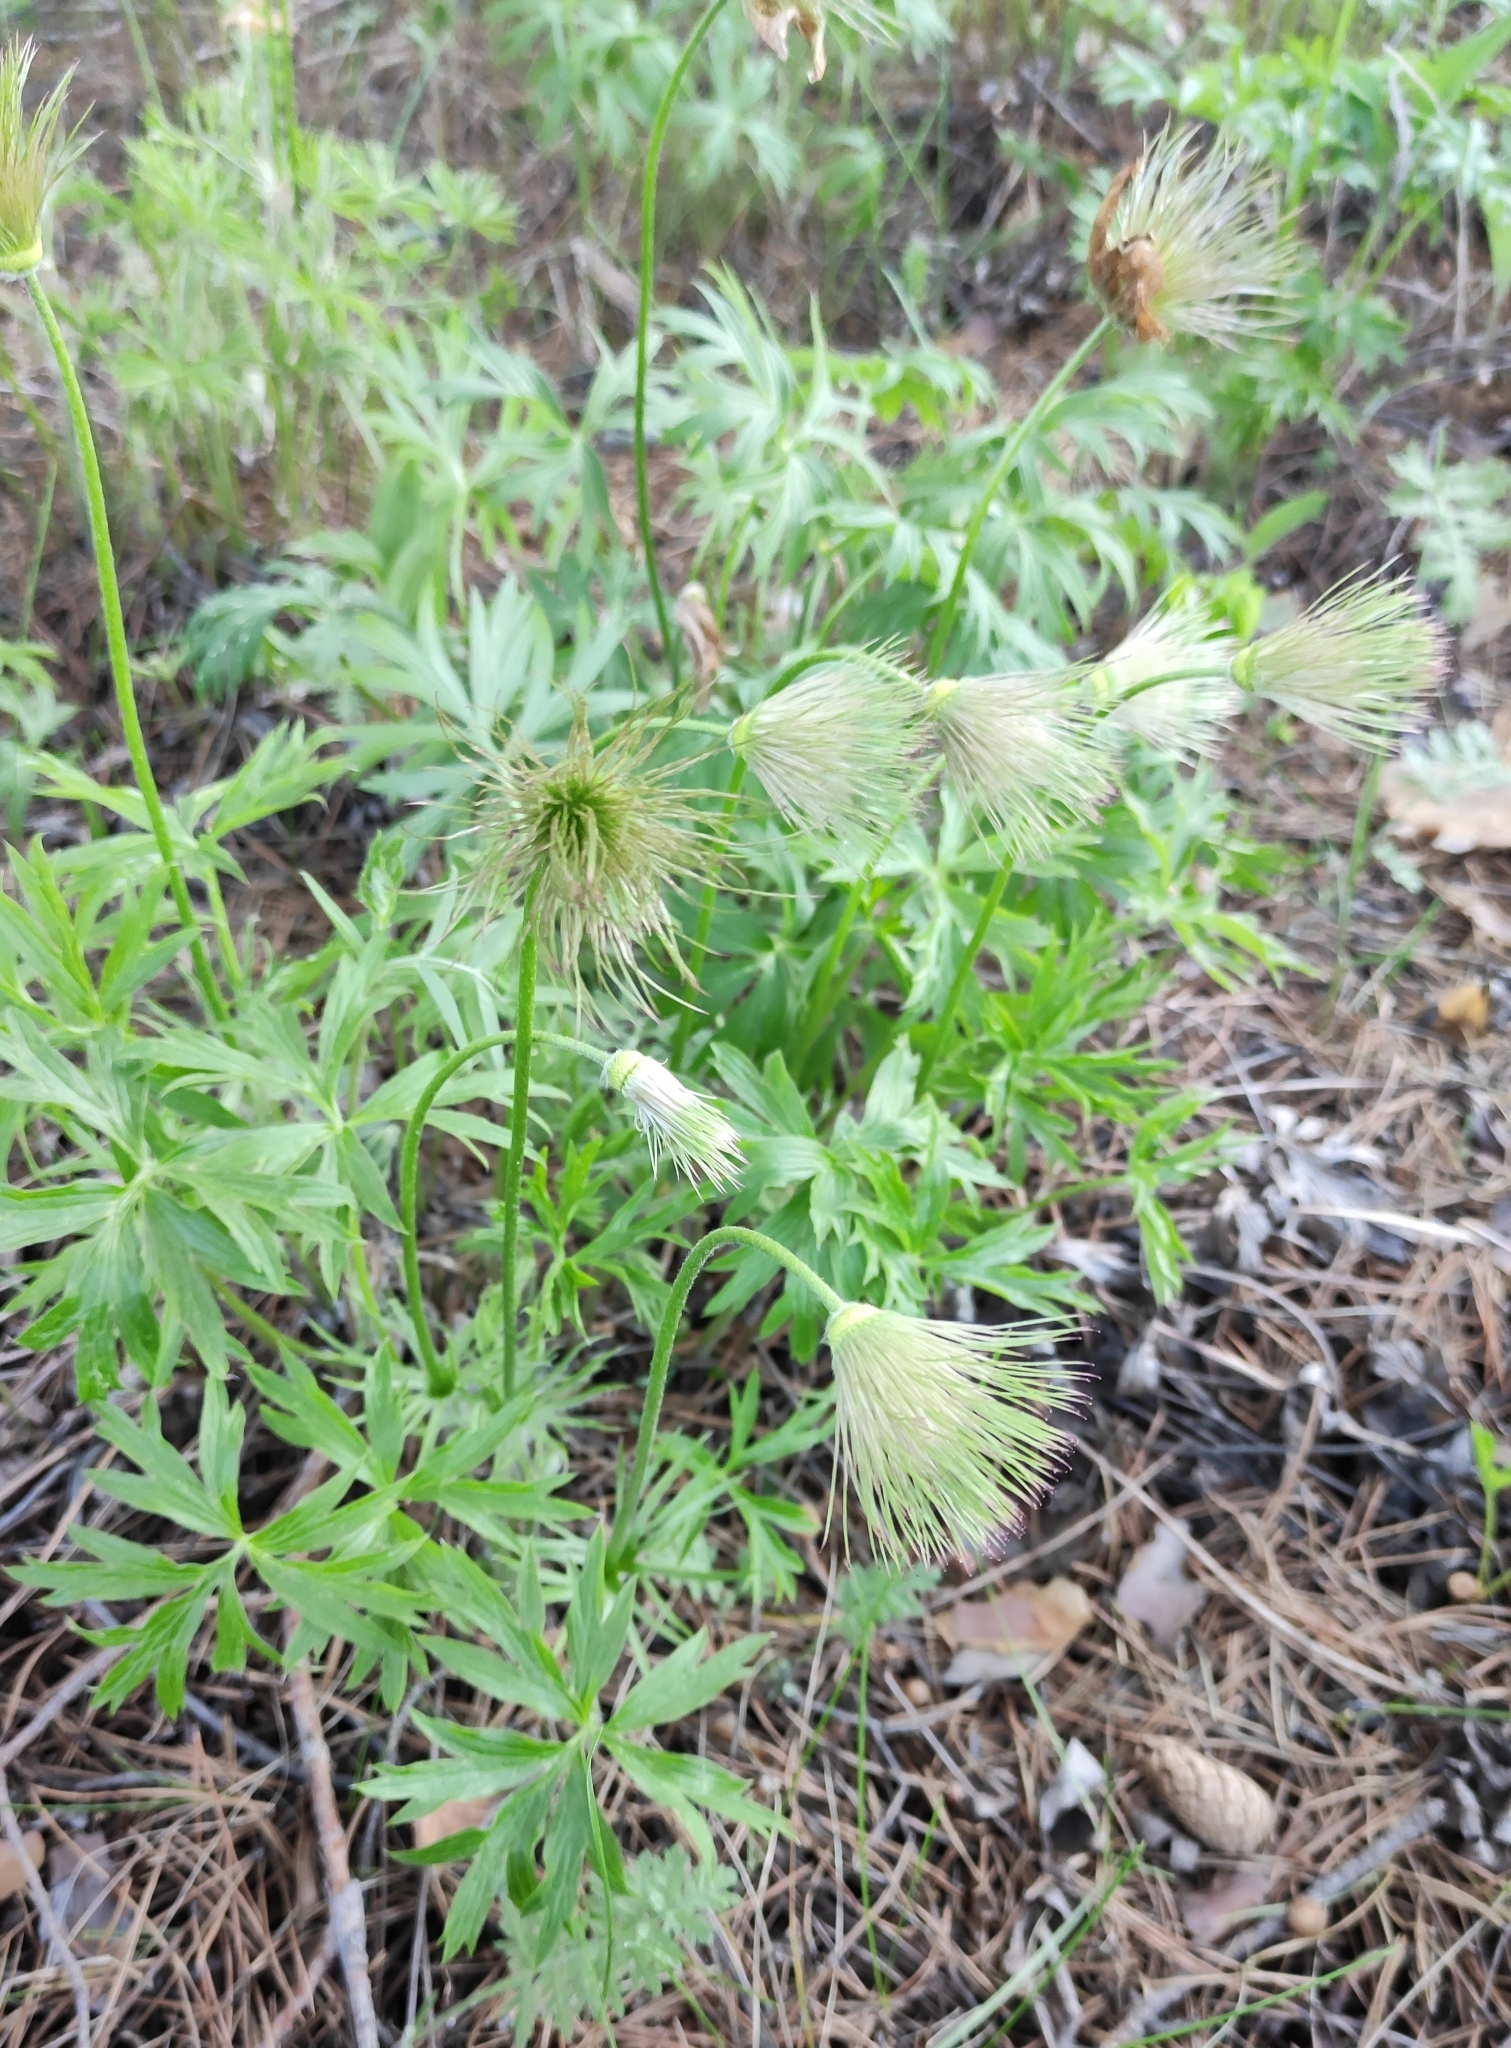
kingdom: Plantae
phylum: Tracheophyta
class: Magnoliopsida
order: Ranunculales
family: Ranunculaceae
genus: Pulsatilla
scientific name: Pulsatilla patens
